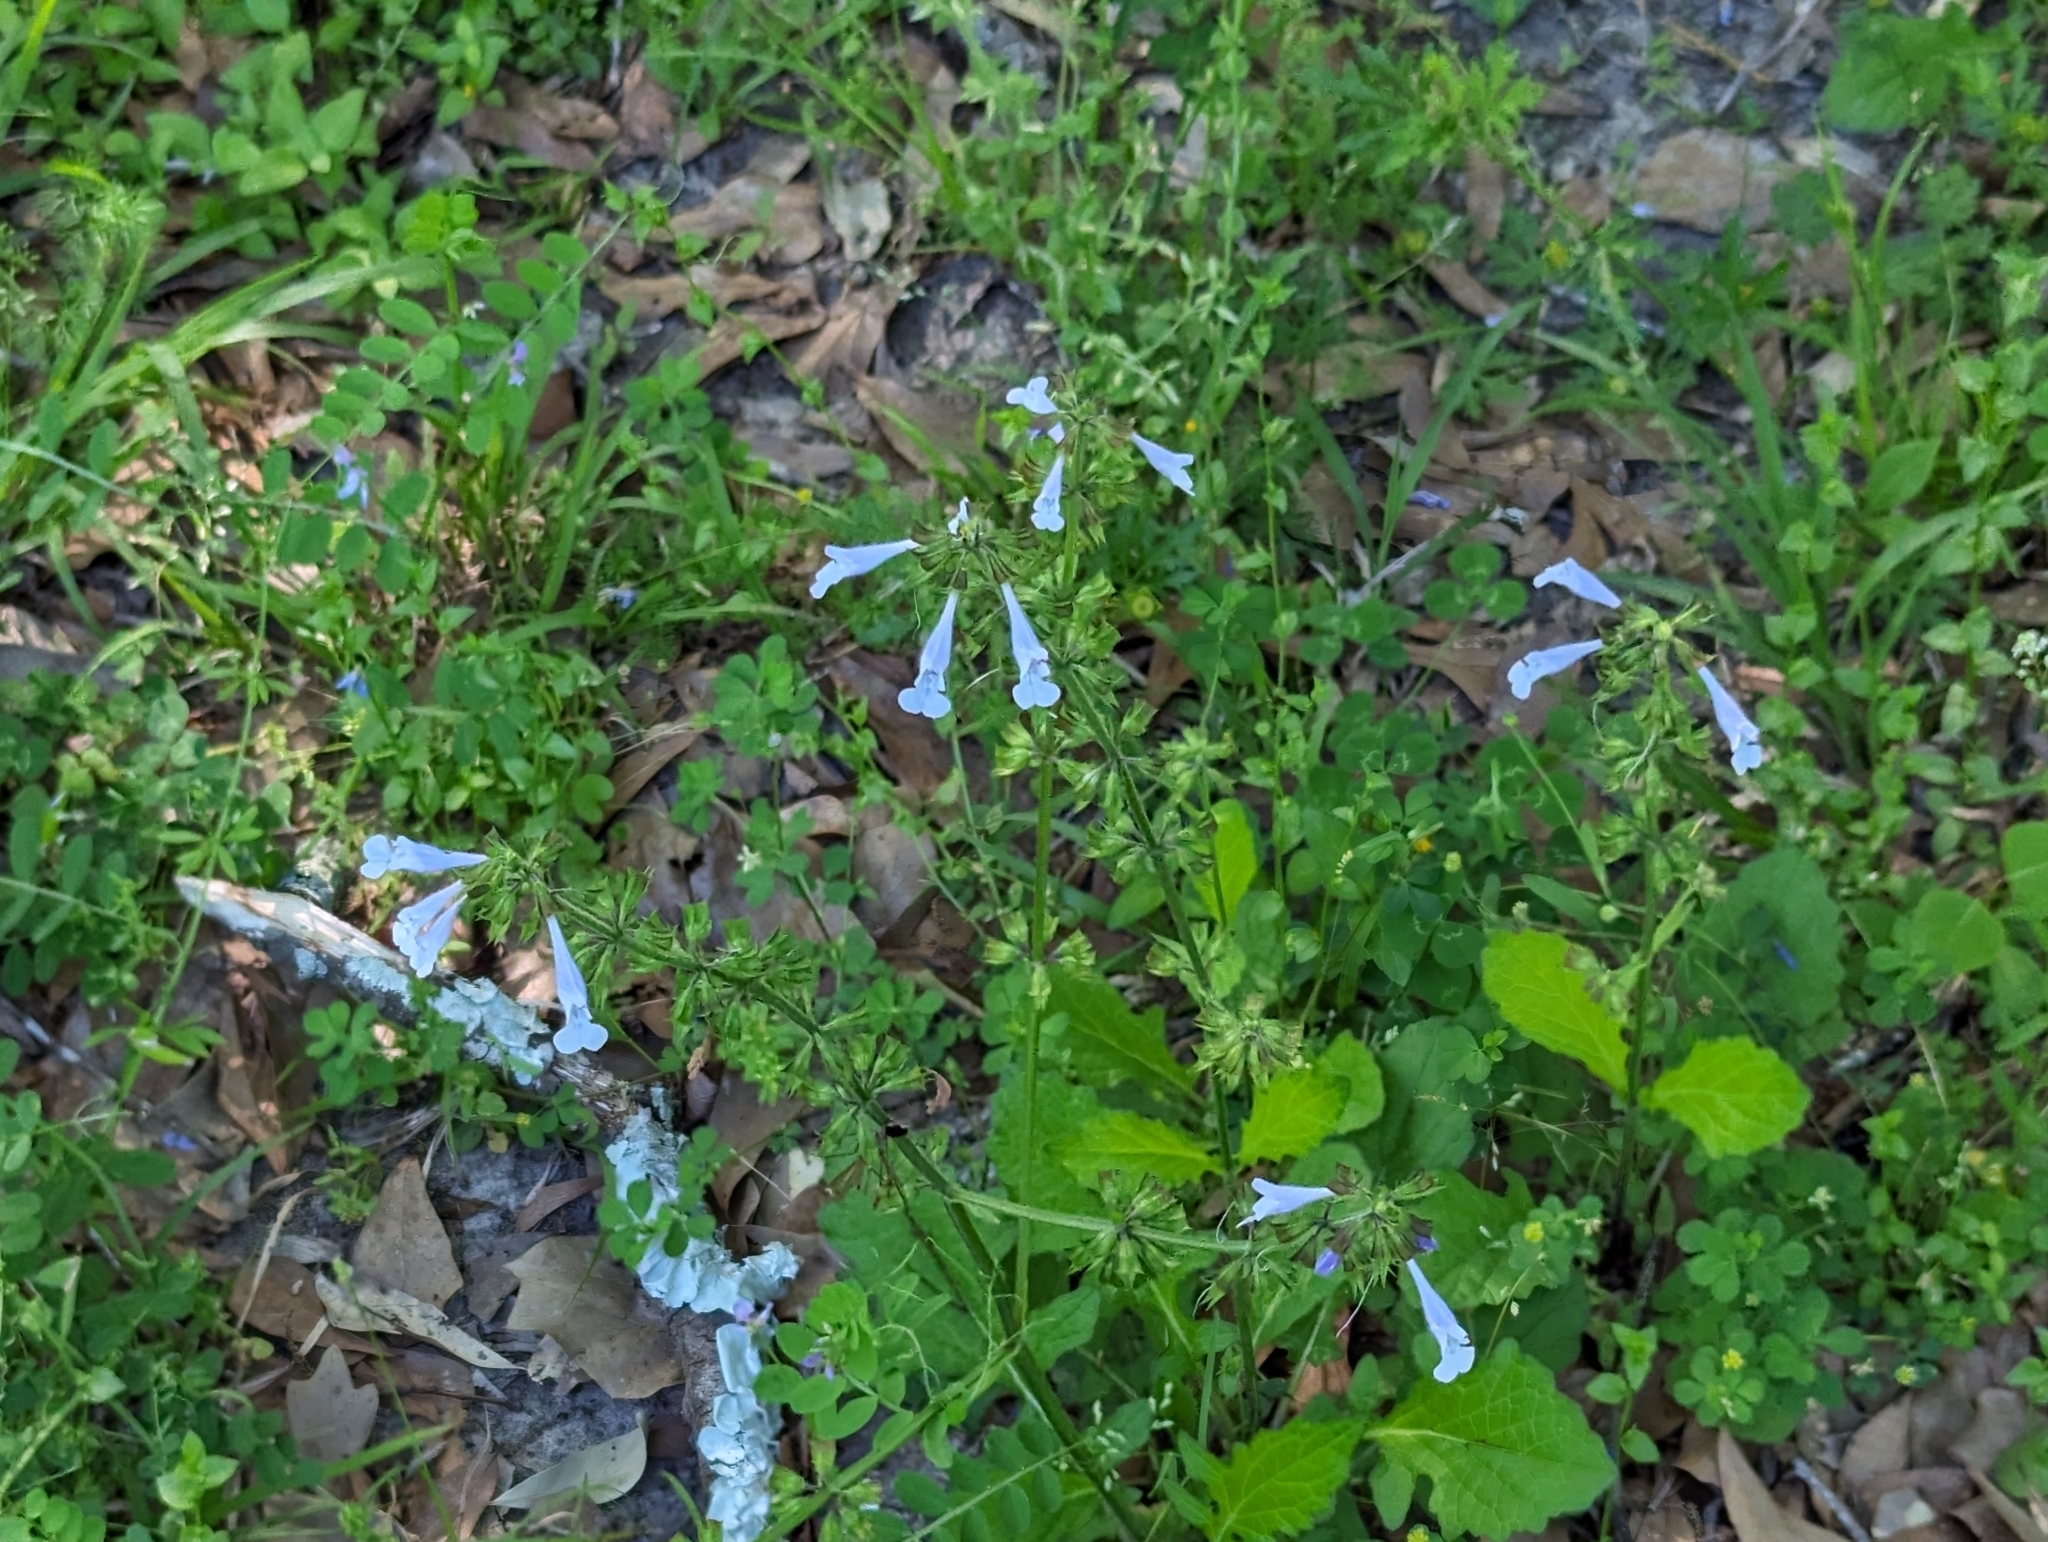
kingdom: Plantae
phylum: Tracheophyta
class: Magnoliopsida
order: Lamiales
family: Lamiaceae
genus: Salvia
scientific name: Salvia lyrata
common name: Cancerweed
